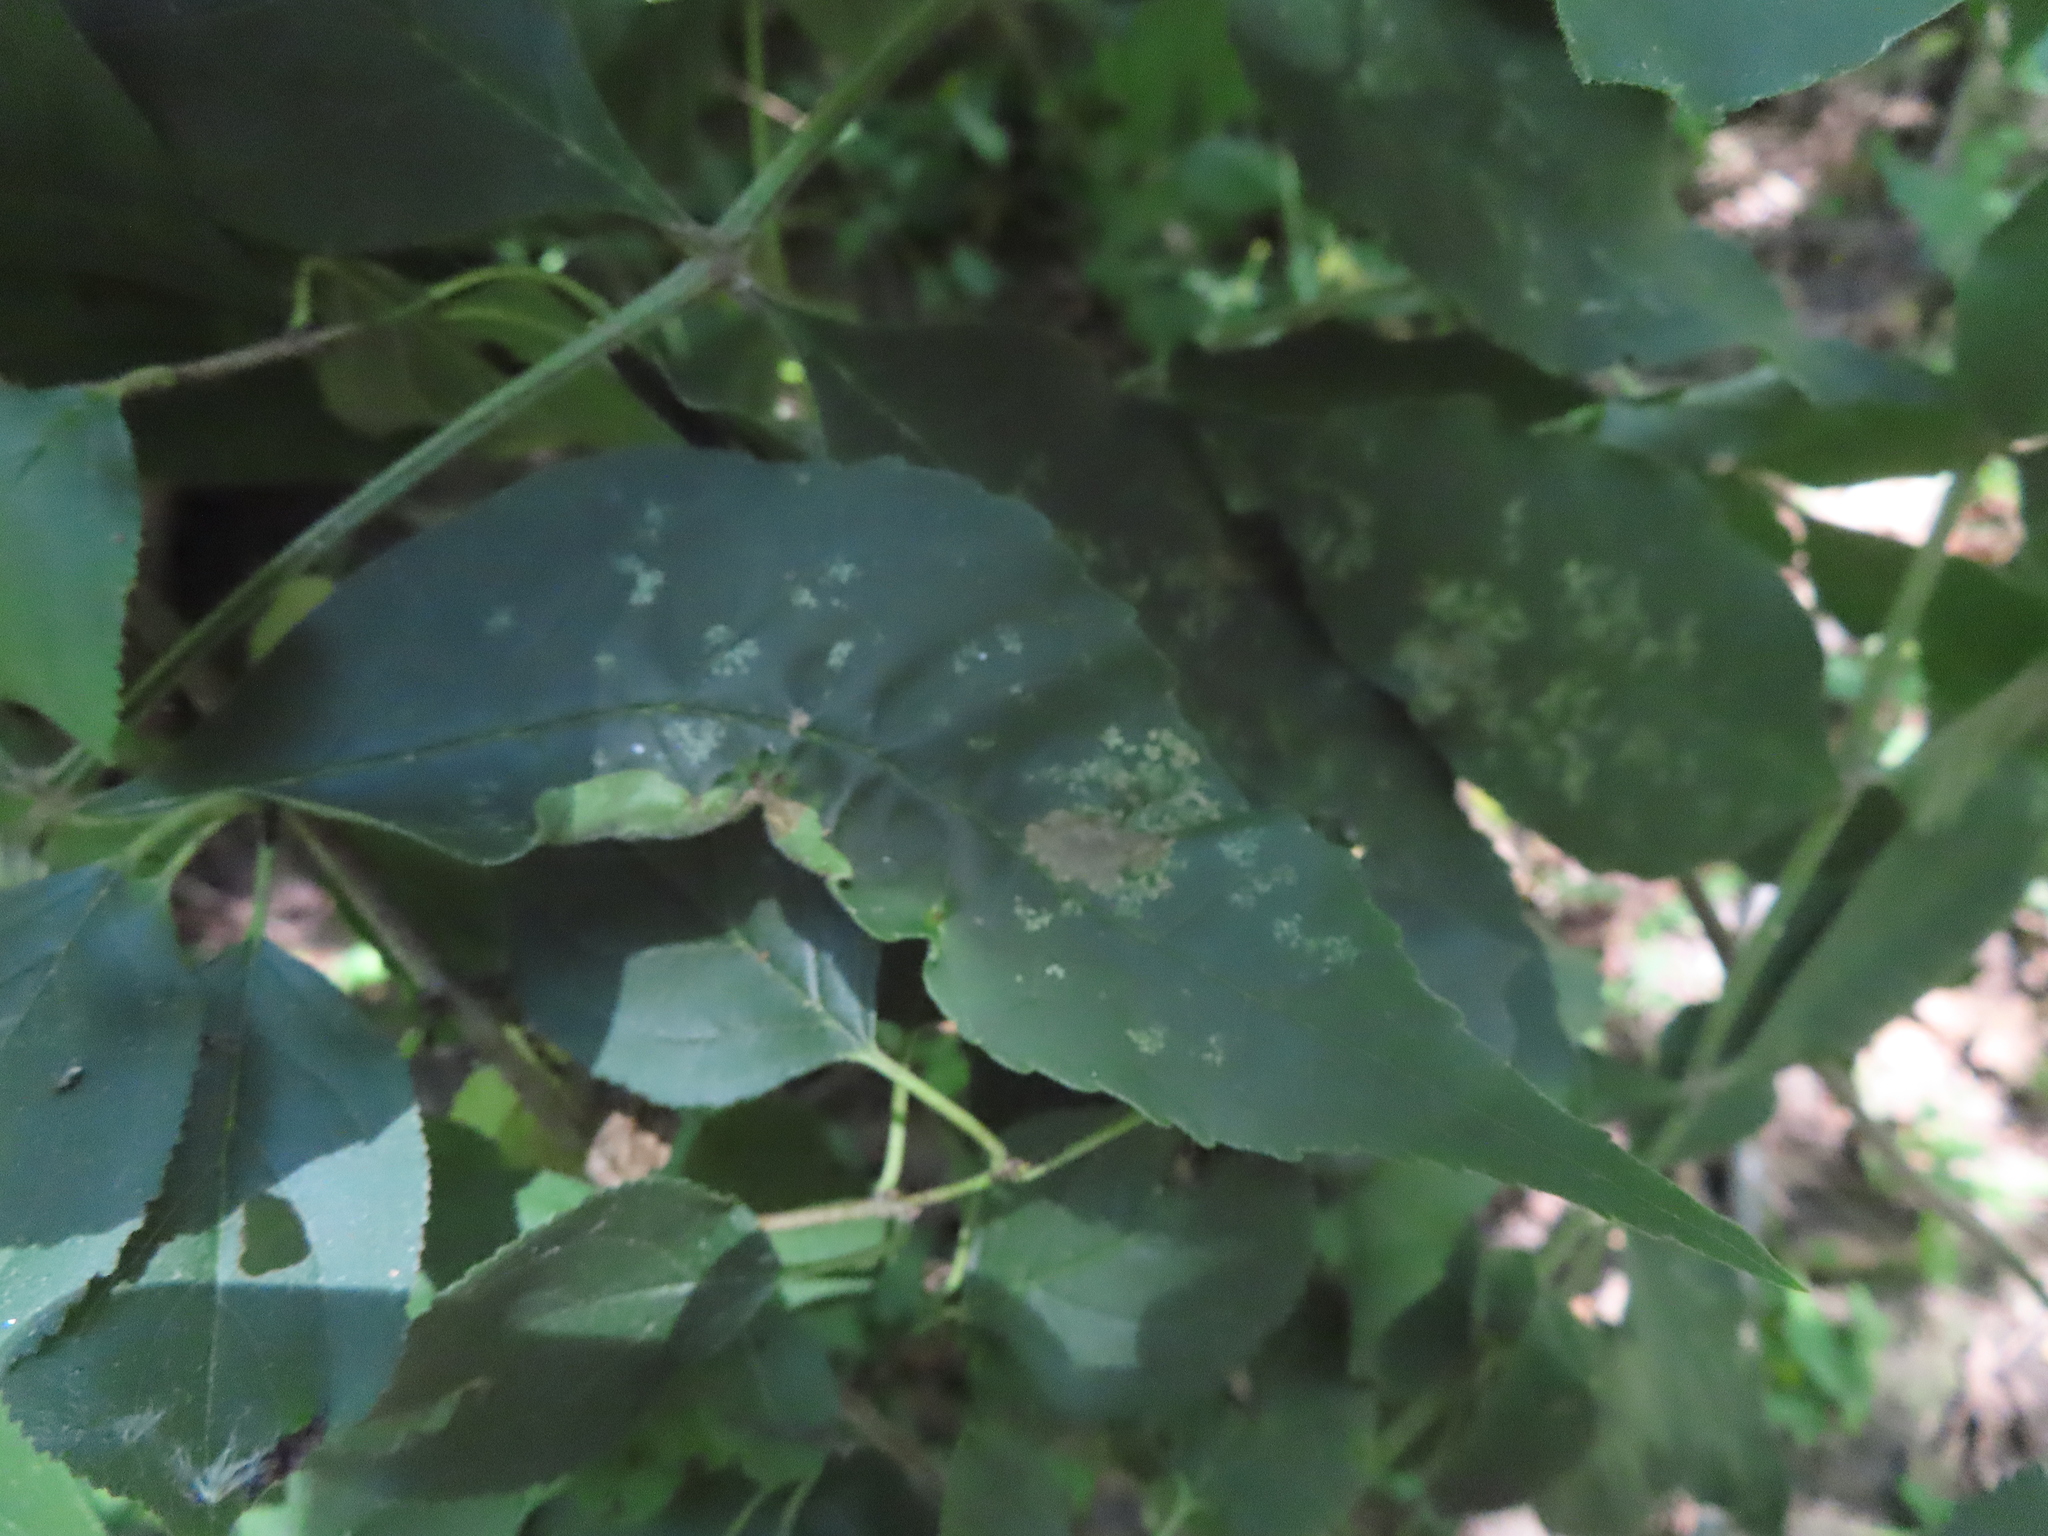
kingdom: Animalia
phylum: Arthropoda
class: Insecta
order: Hemiptera
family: Aphididae
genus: Prociphilus
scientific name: Prociphilus fraxinifolii
